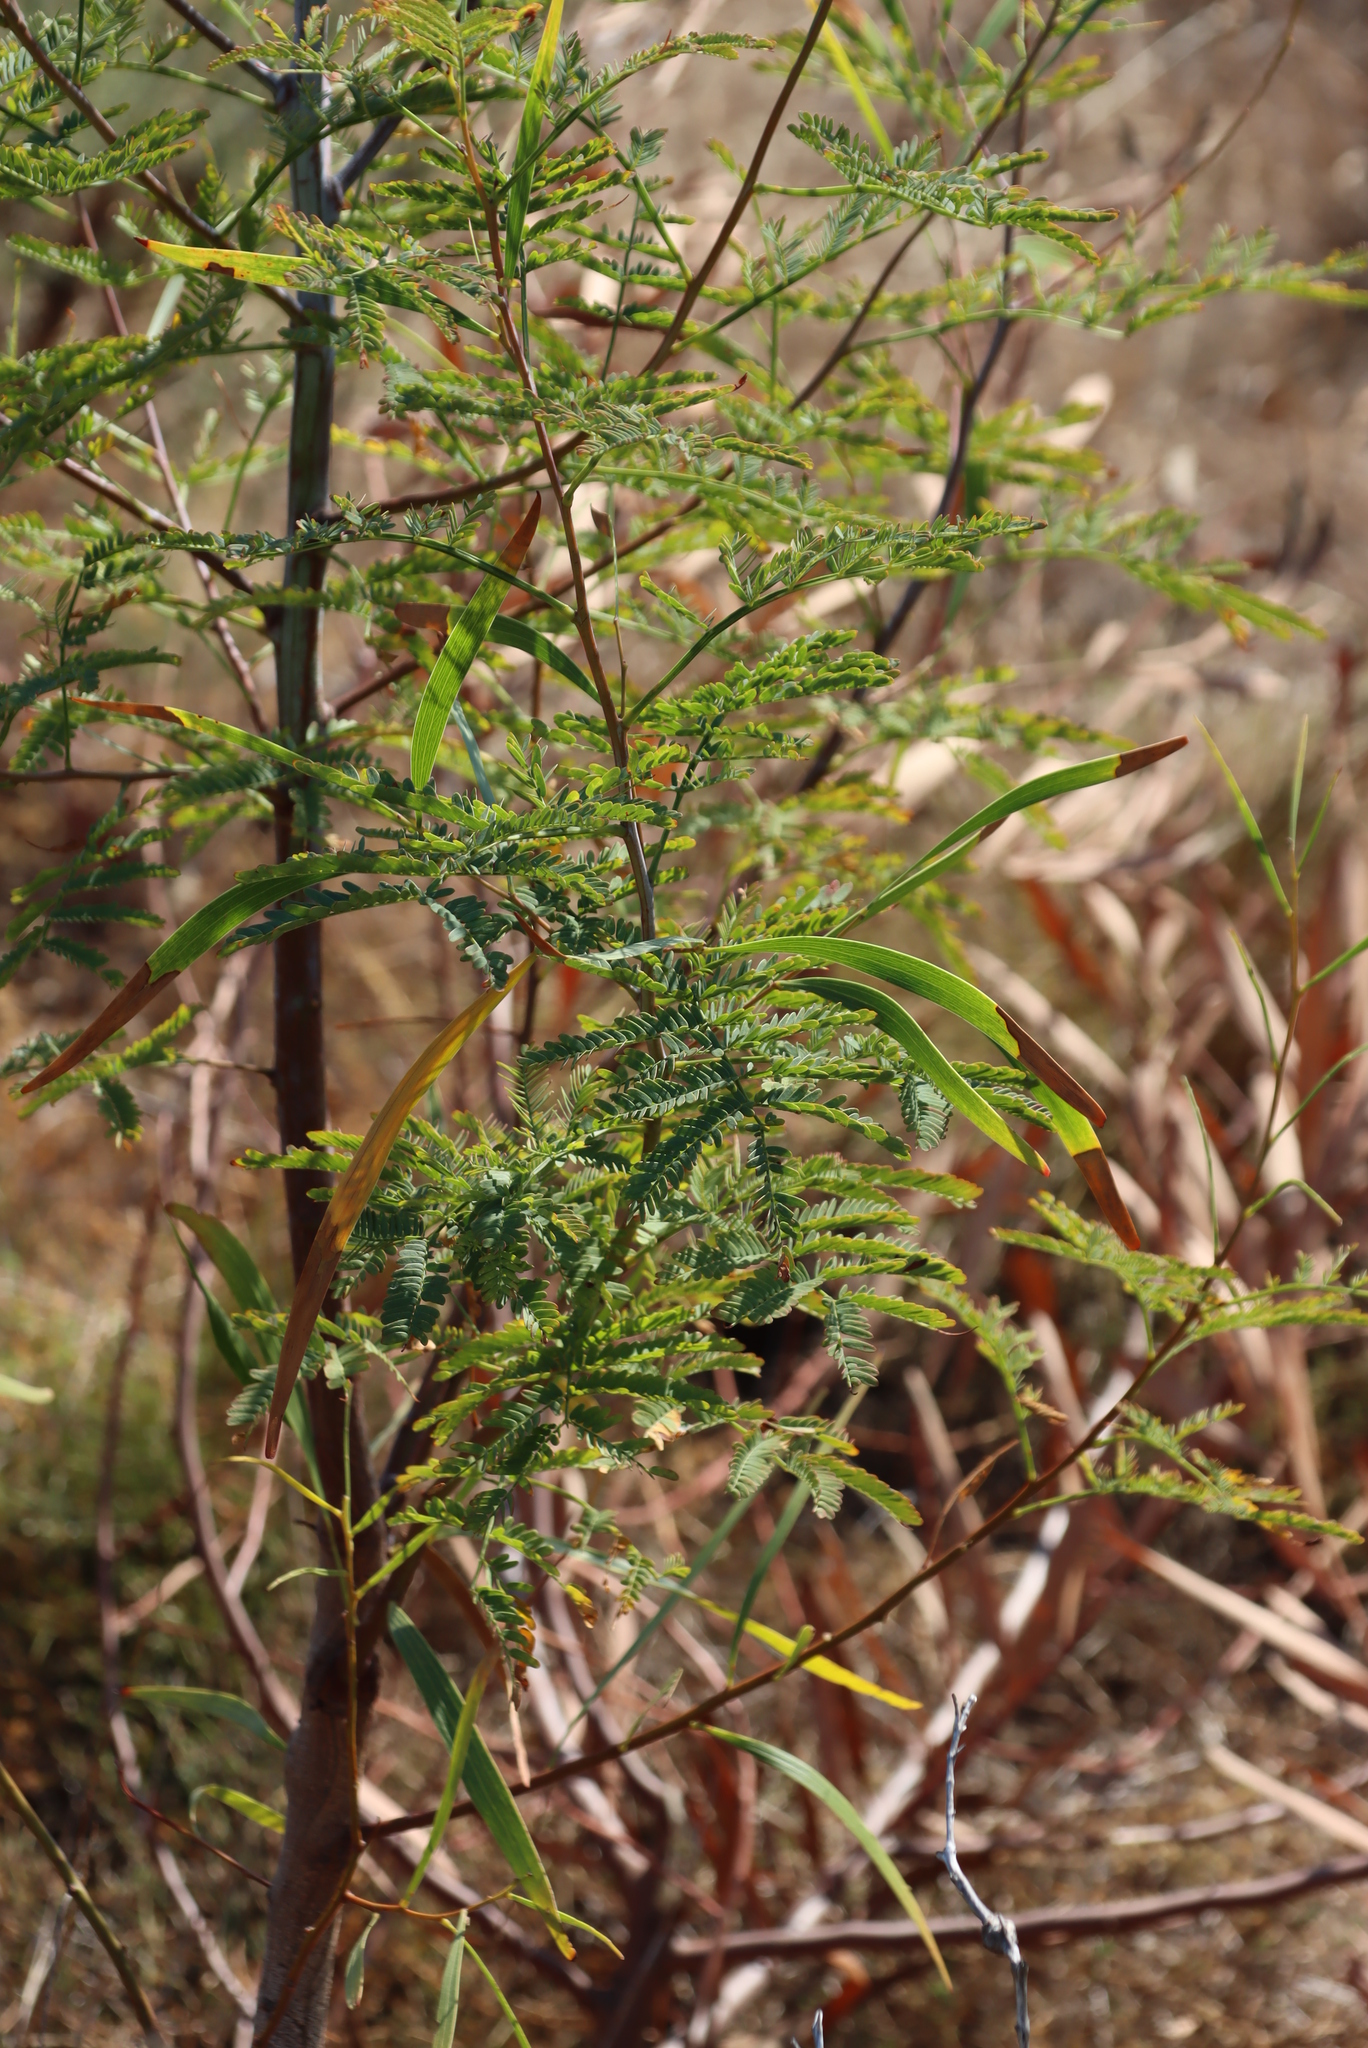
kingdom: Plantae
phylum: Tracheophyta
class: Magnoliopsida
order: Fabales
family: Fabaceae
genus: Acacia
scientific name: Acacia implexa
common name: Black wattle
